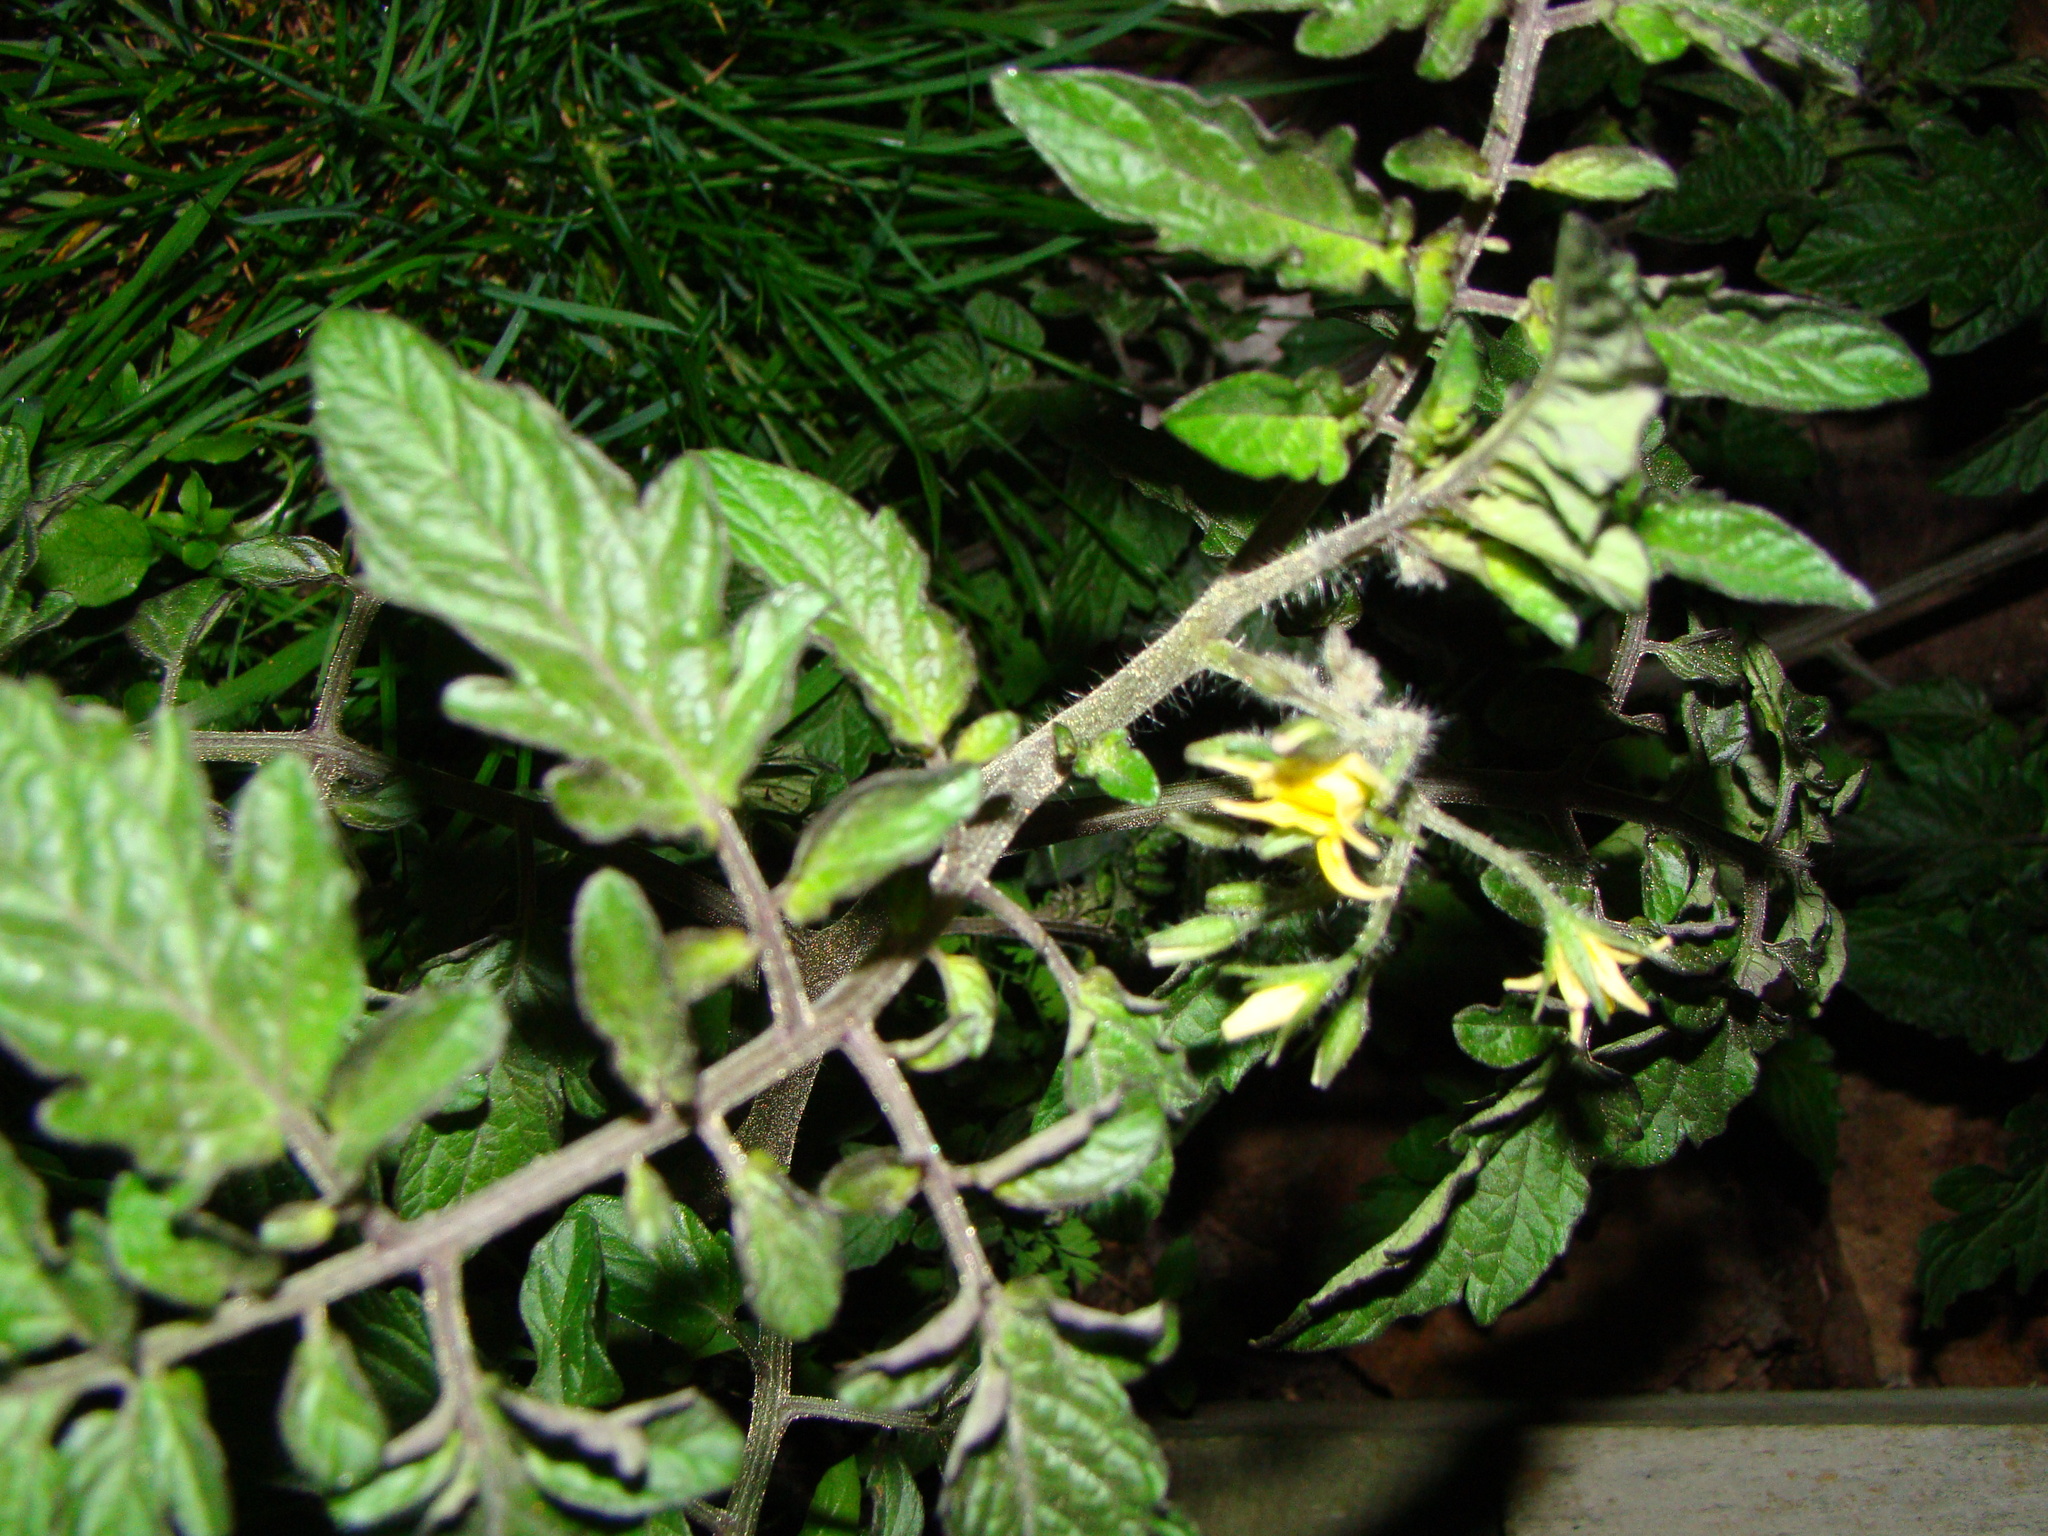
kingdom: Plantae
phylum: Tracheophyta
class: Magnoliopsida
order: Solanales
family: Solanaceae
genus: Solanum
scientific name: Solanum lycopersicum
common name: Garden tomato
